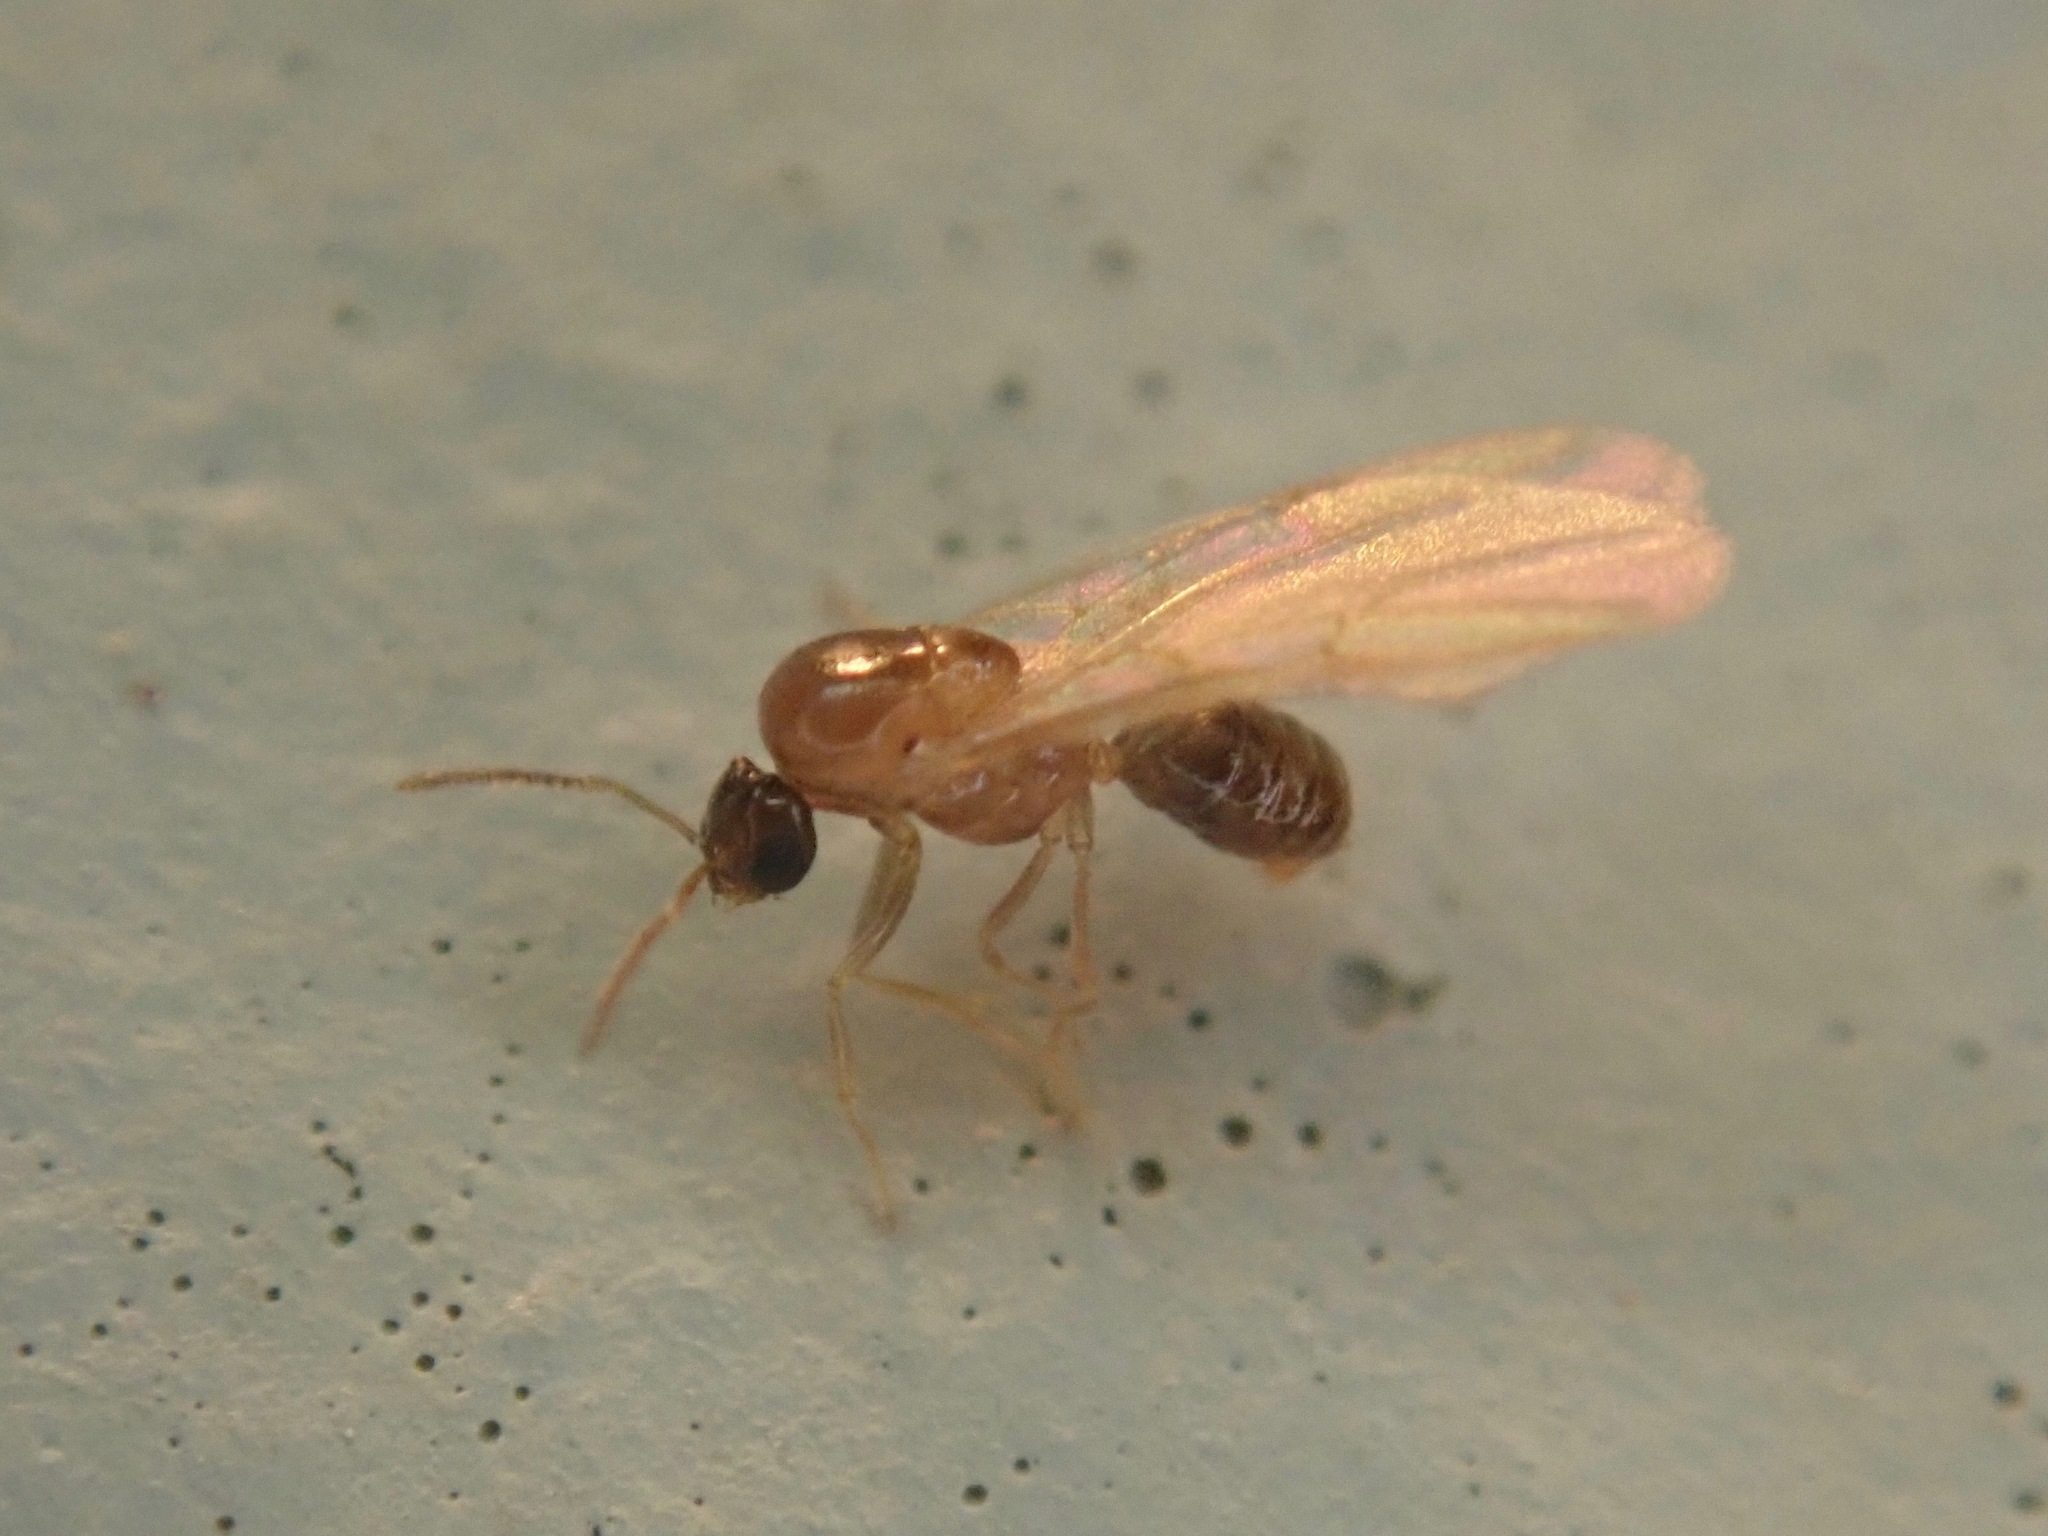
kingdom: Animalia
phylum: Arthropoda
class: Insecta
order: Hymenoptera
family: Formicidae
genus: Brachymyrmex
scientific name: Brachymyrmex patagonicus
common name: Dark rover ant
